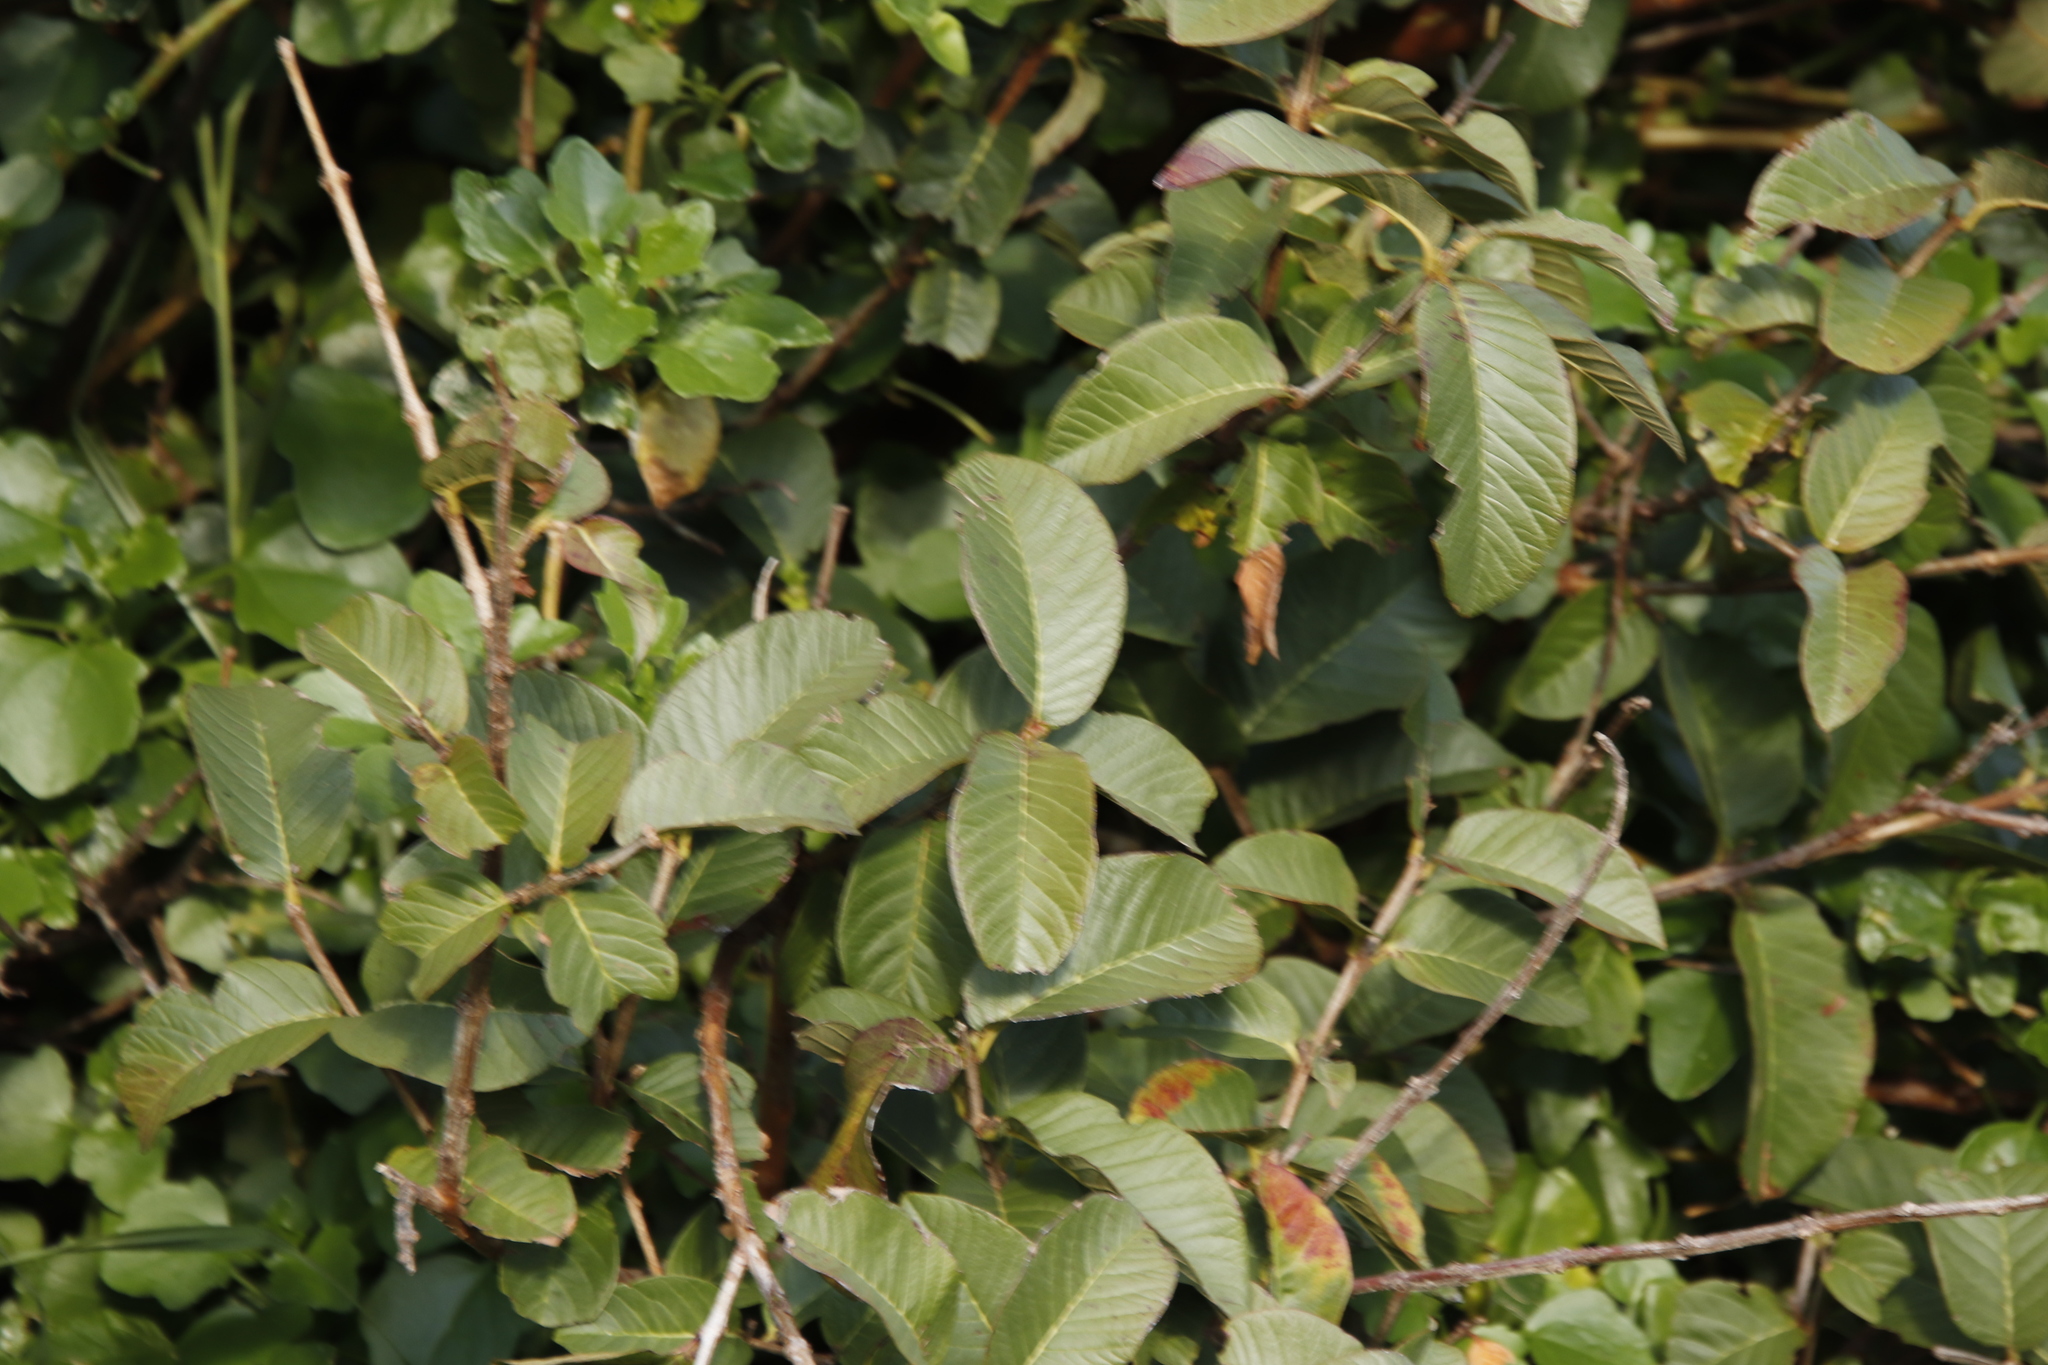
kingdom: Plantae
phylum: Tracheophyta
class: Magnoliopsida
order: Myrtales
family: Myrtaceae
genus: Psidium
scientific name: Psidium guajava
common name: Guava
